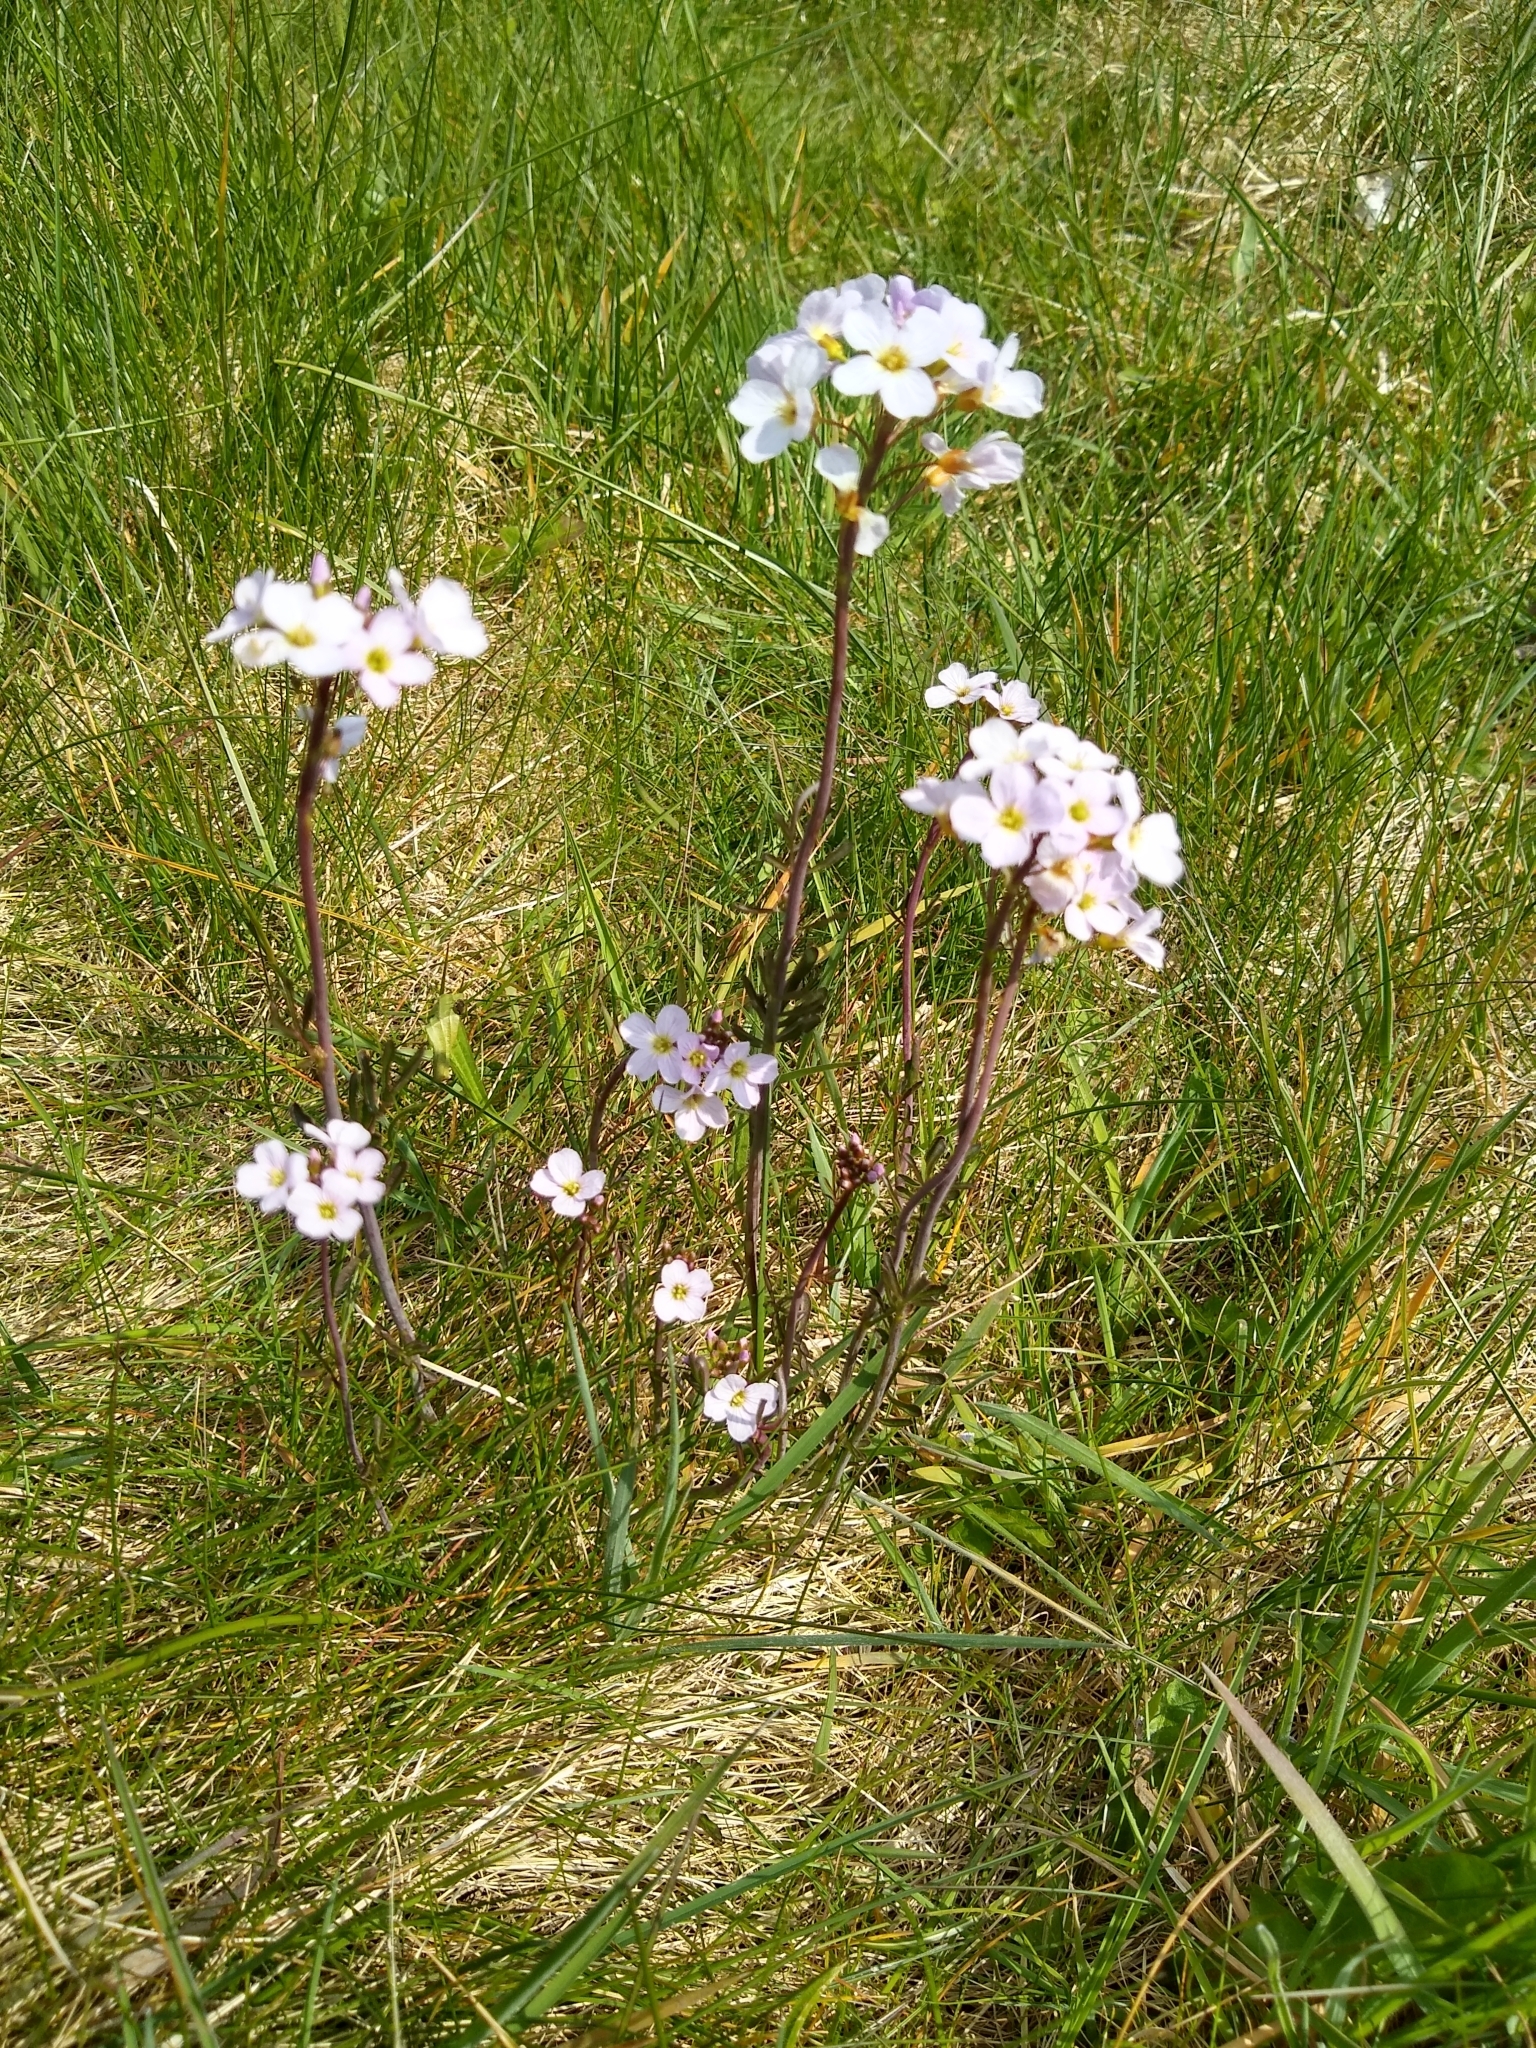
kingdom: Plantae
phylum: Tracheophyta
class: Magnoliopsida
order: Brassicales
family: Brassicaceae
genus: Cardamine
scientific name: Cardamine pratensis
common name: Cuckoo flower
